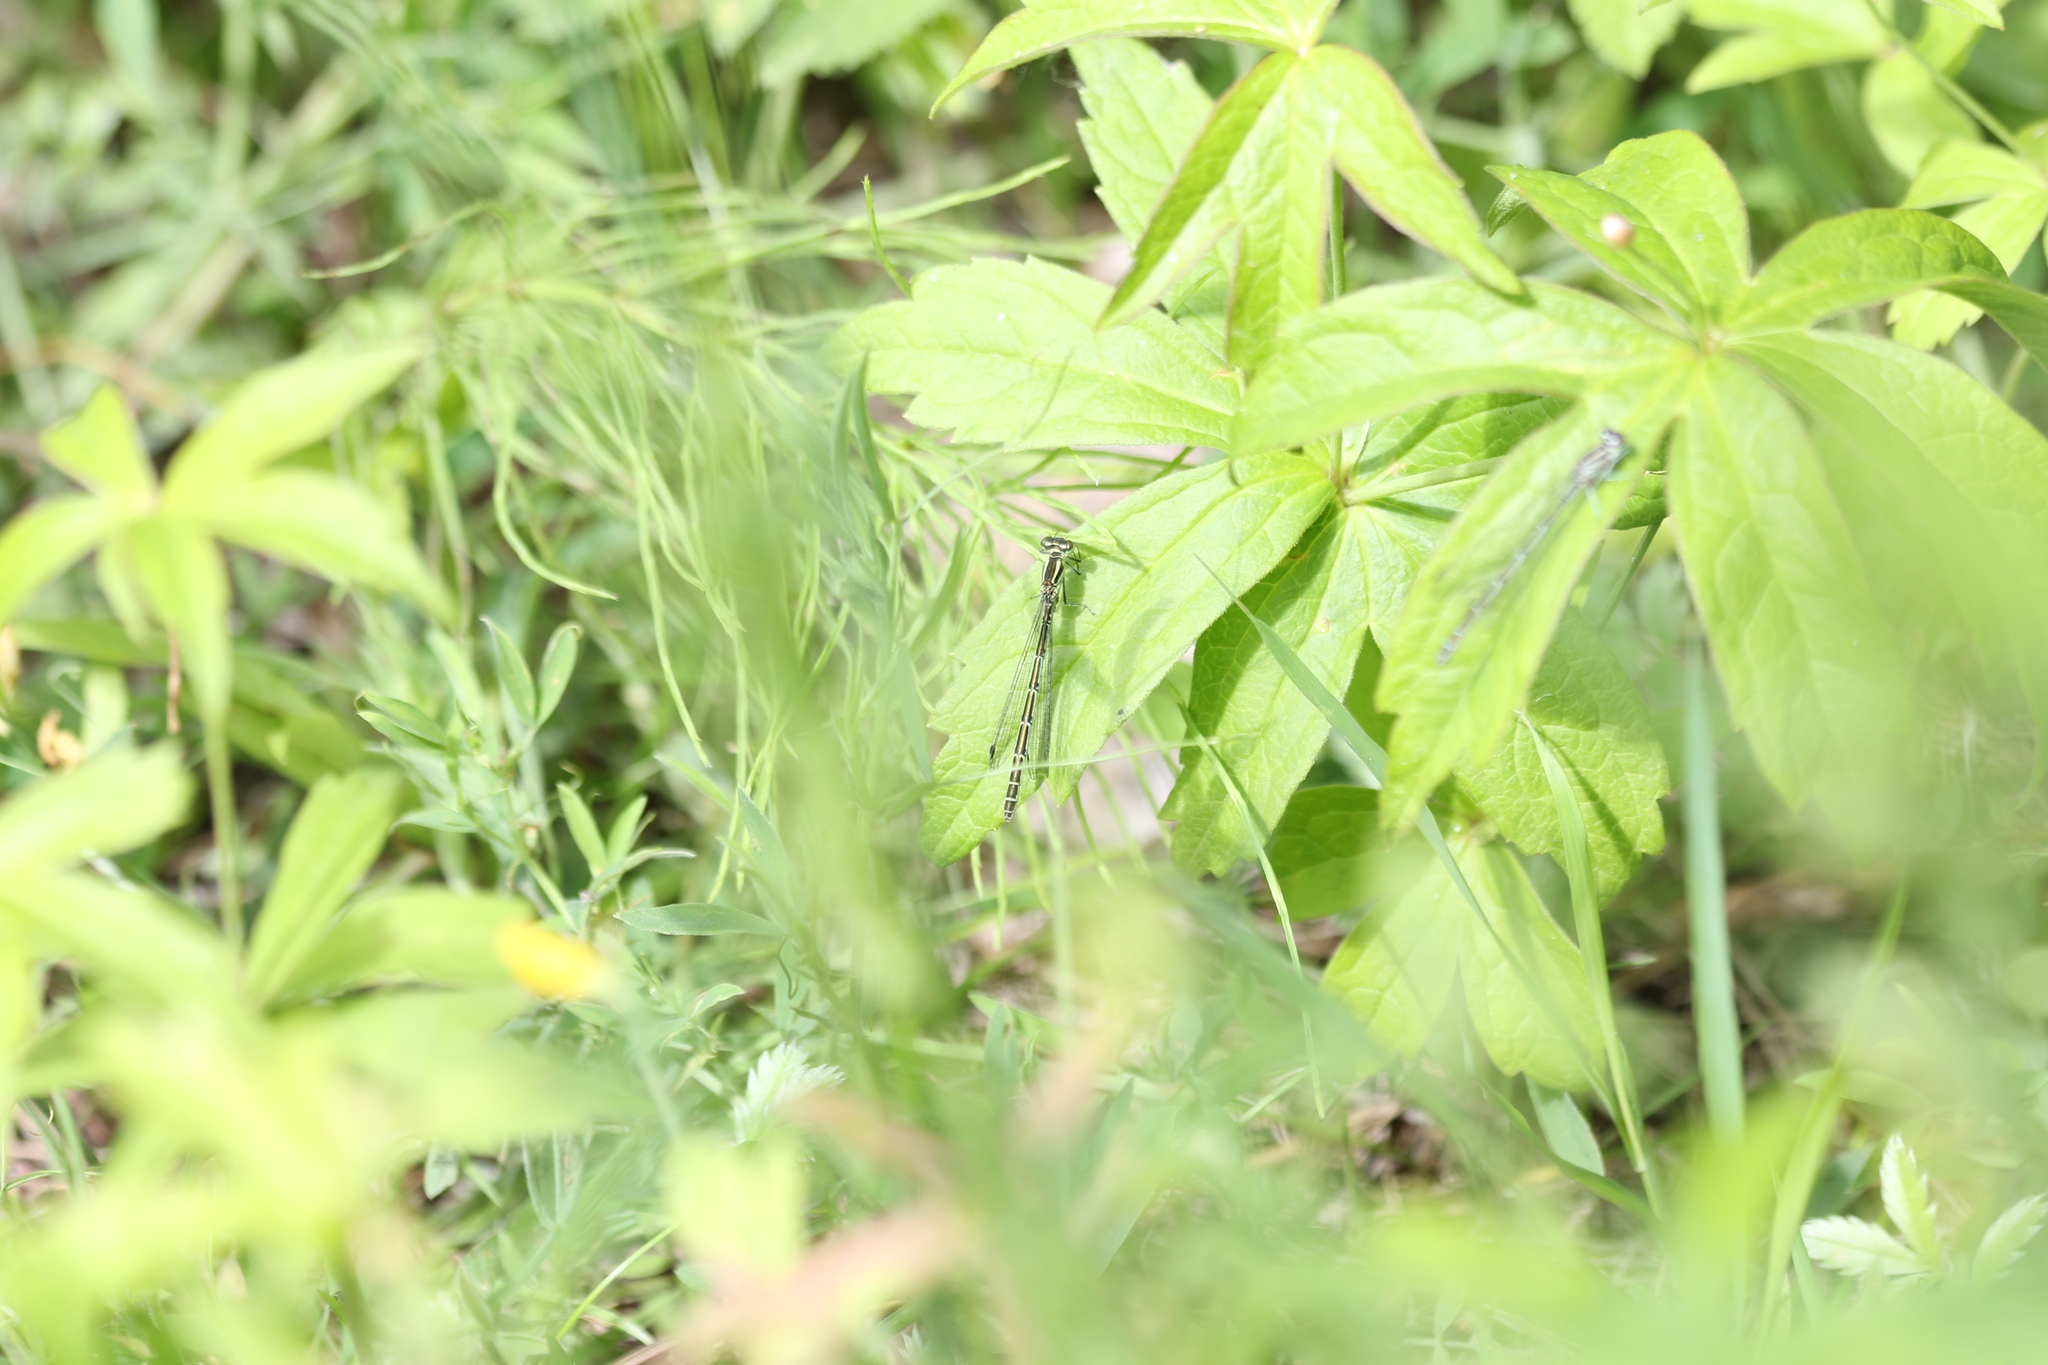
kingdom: Animalia
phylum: Arthropoda
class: Insecta
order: Odonata
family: Coenagrionidae
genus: Coenagrion
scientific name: Coenagrion hastulatum
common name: Spearhead bluet
